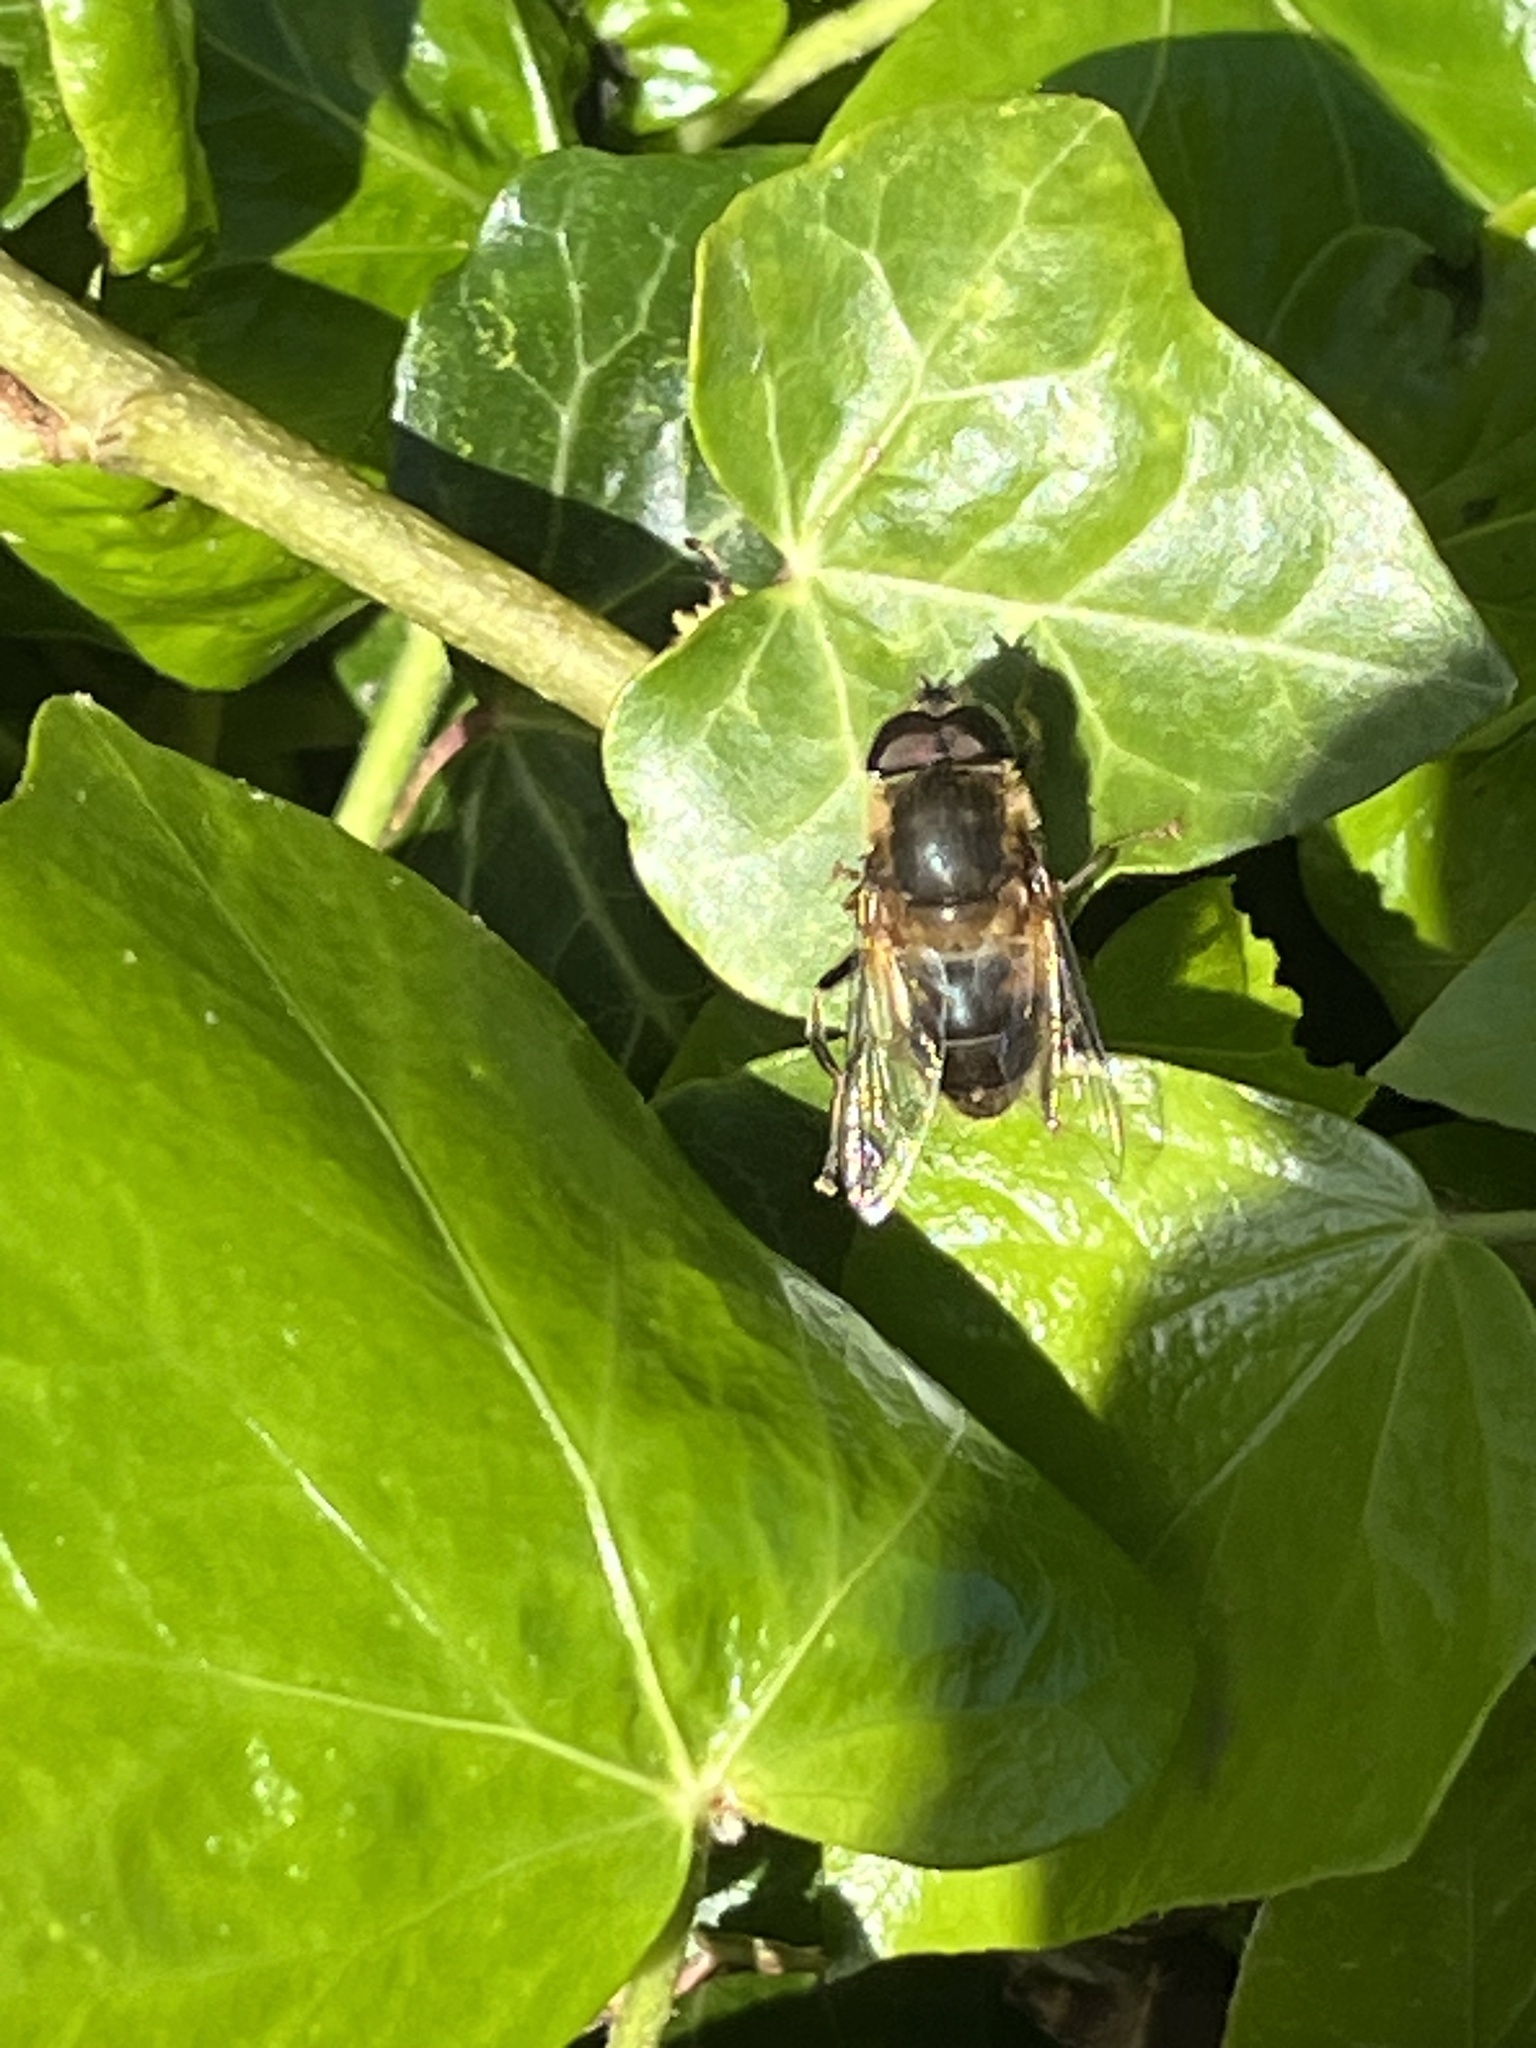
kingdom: Animalia
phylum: Arthropoda
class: Insecta
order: Diptera
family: Syrphidae
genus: Eristalis
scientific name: Eristalis pertinax
